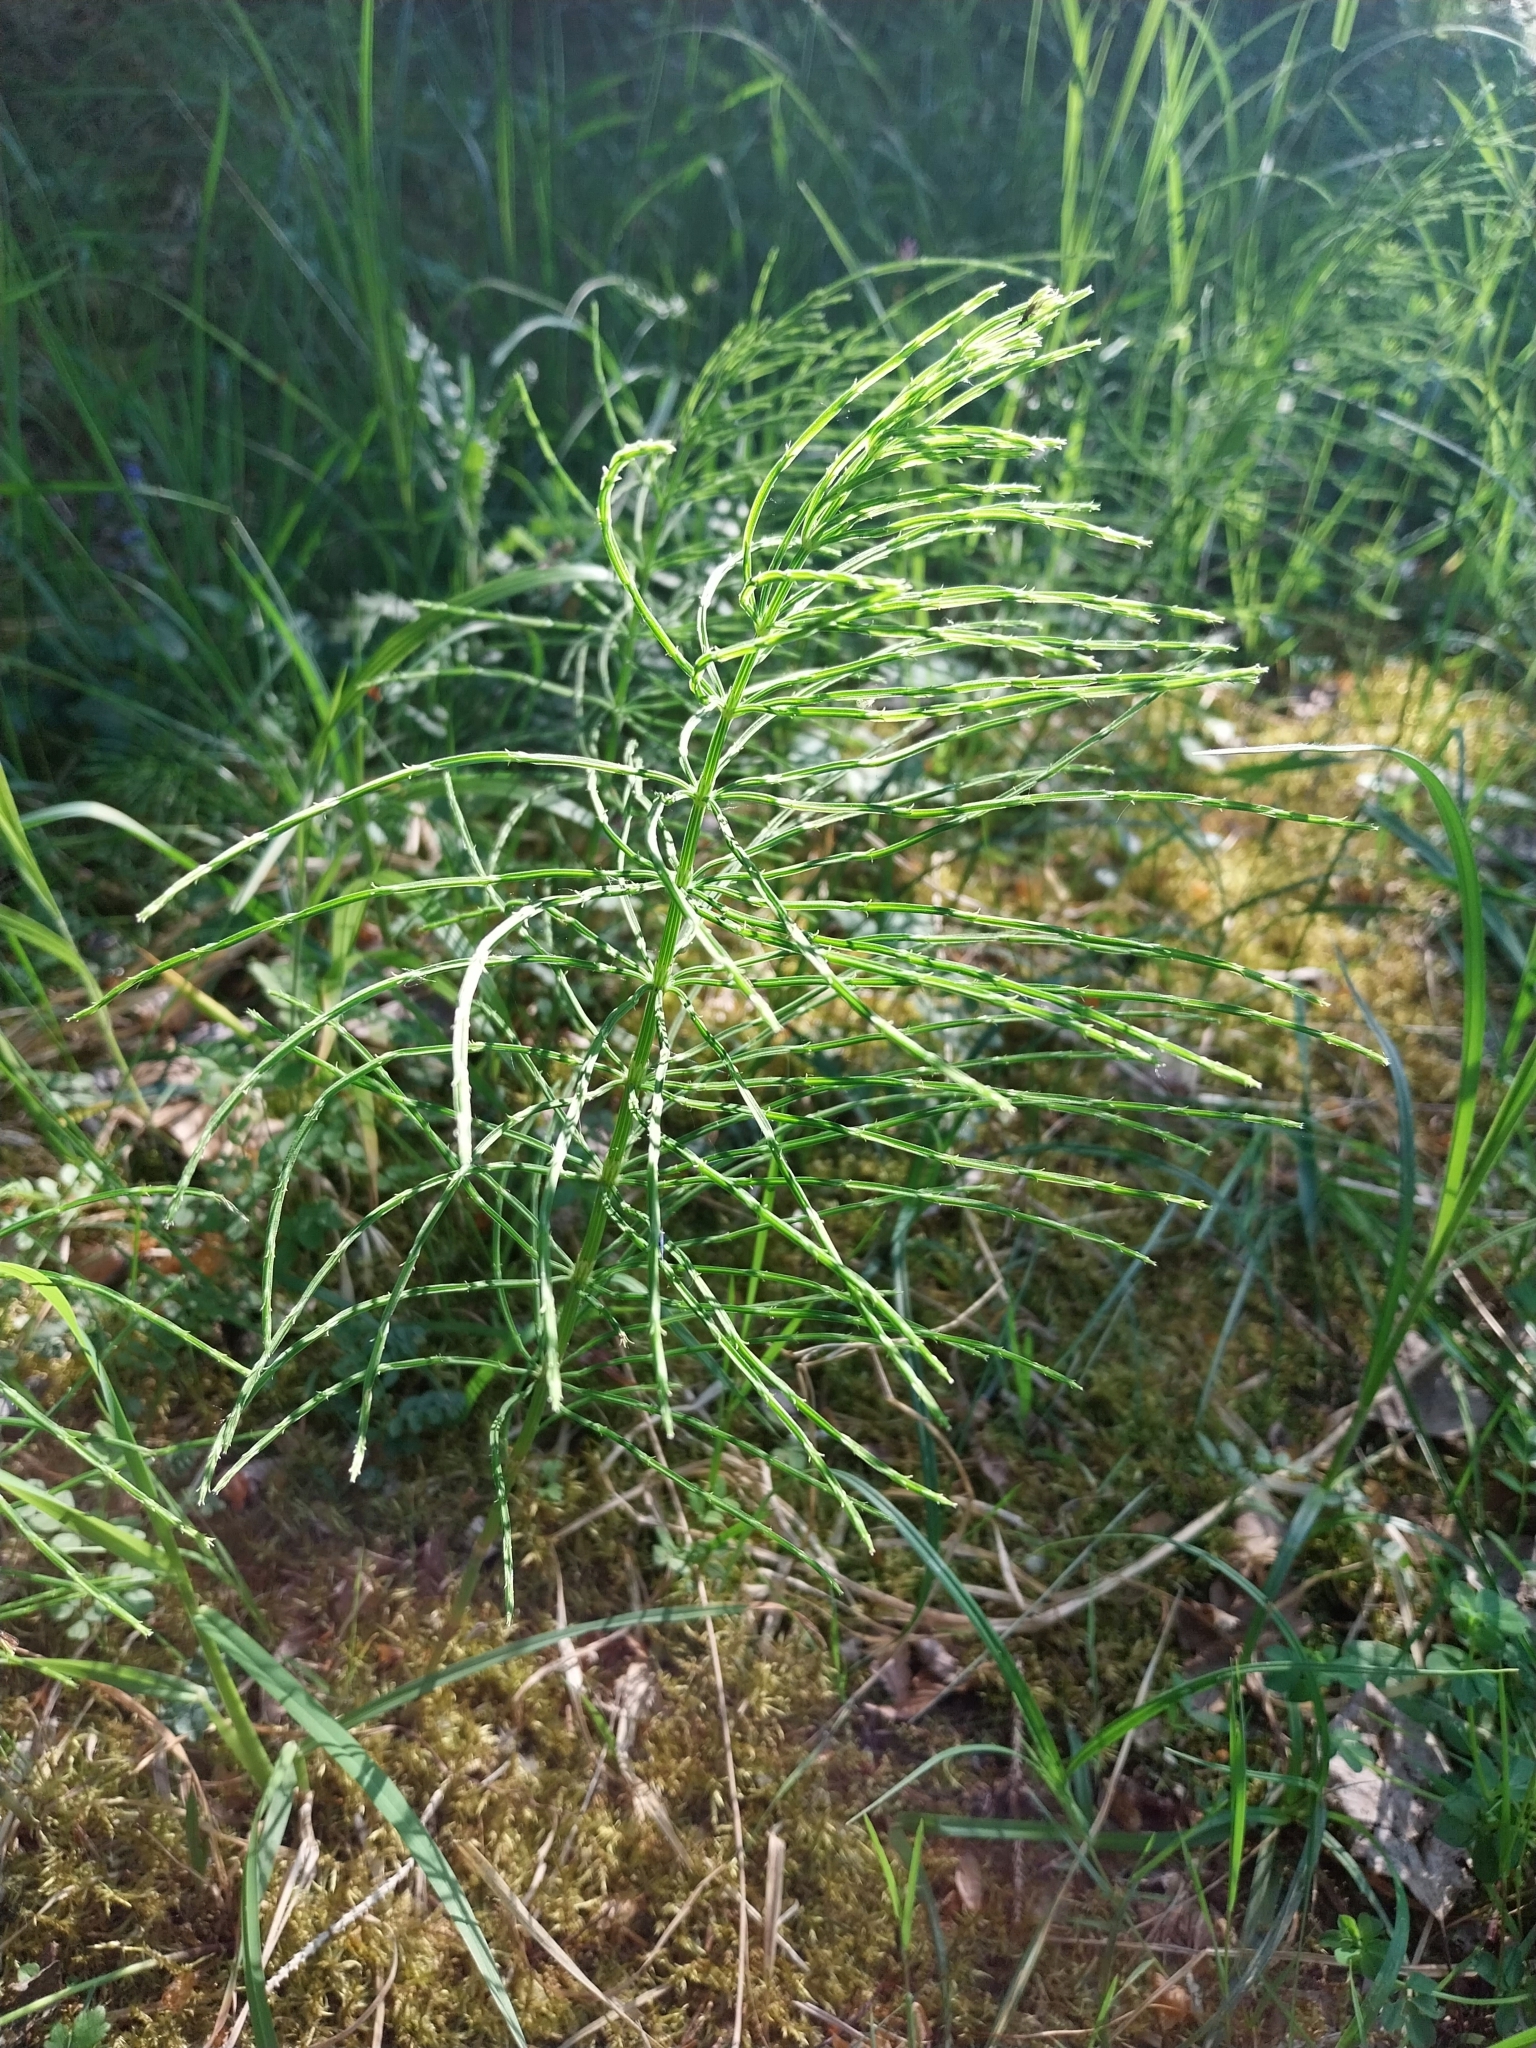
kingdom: Plantae
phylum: Tracheophyta
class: Polypodiopsida
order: Equisetales
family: Equisetaceae
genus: Equisetum
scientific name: Equisetum arvense
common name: Field horsetail
